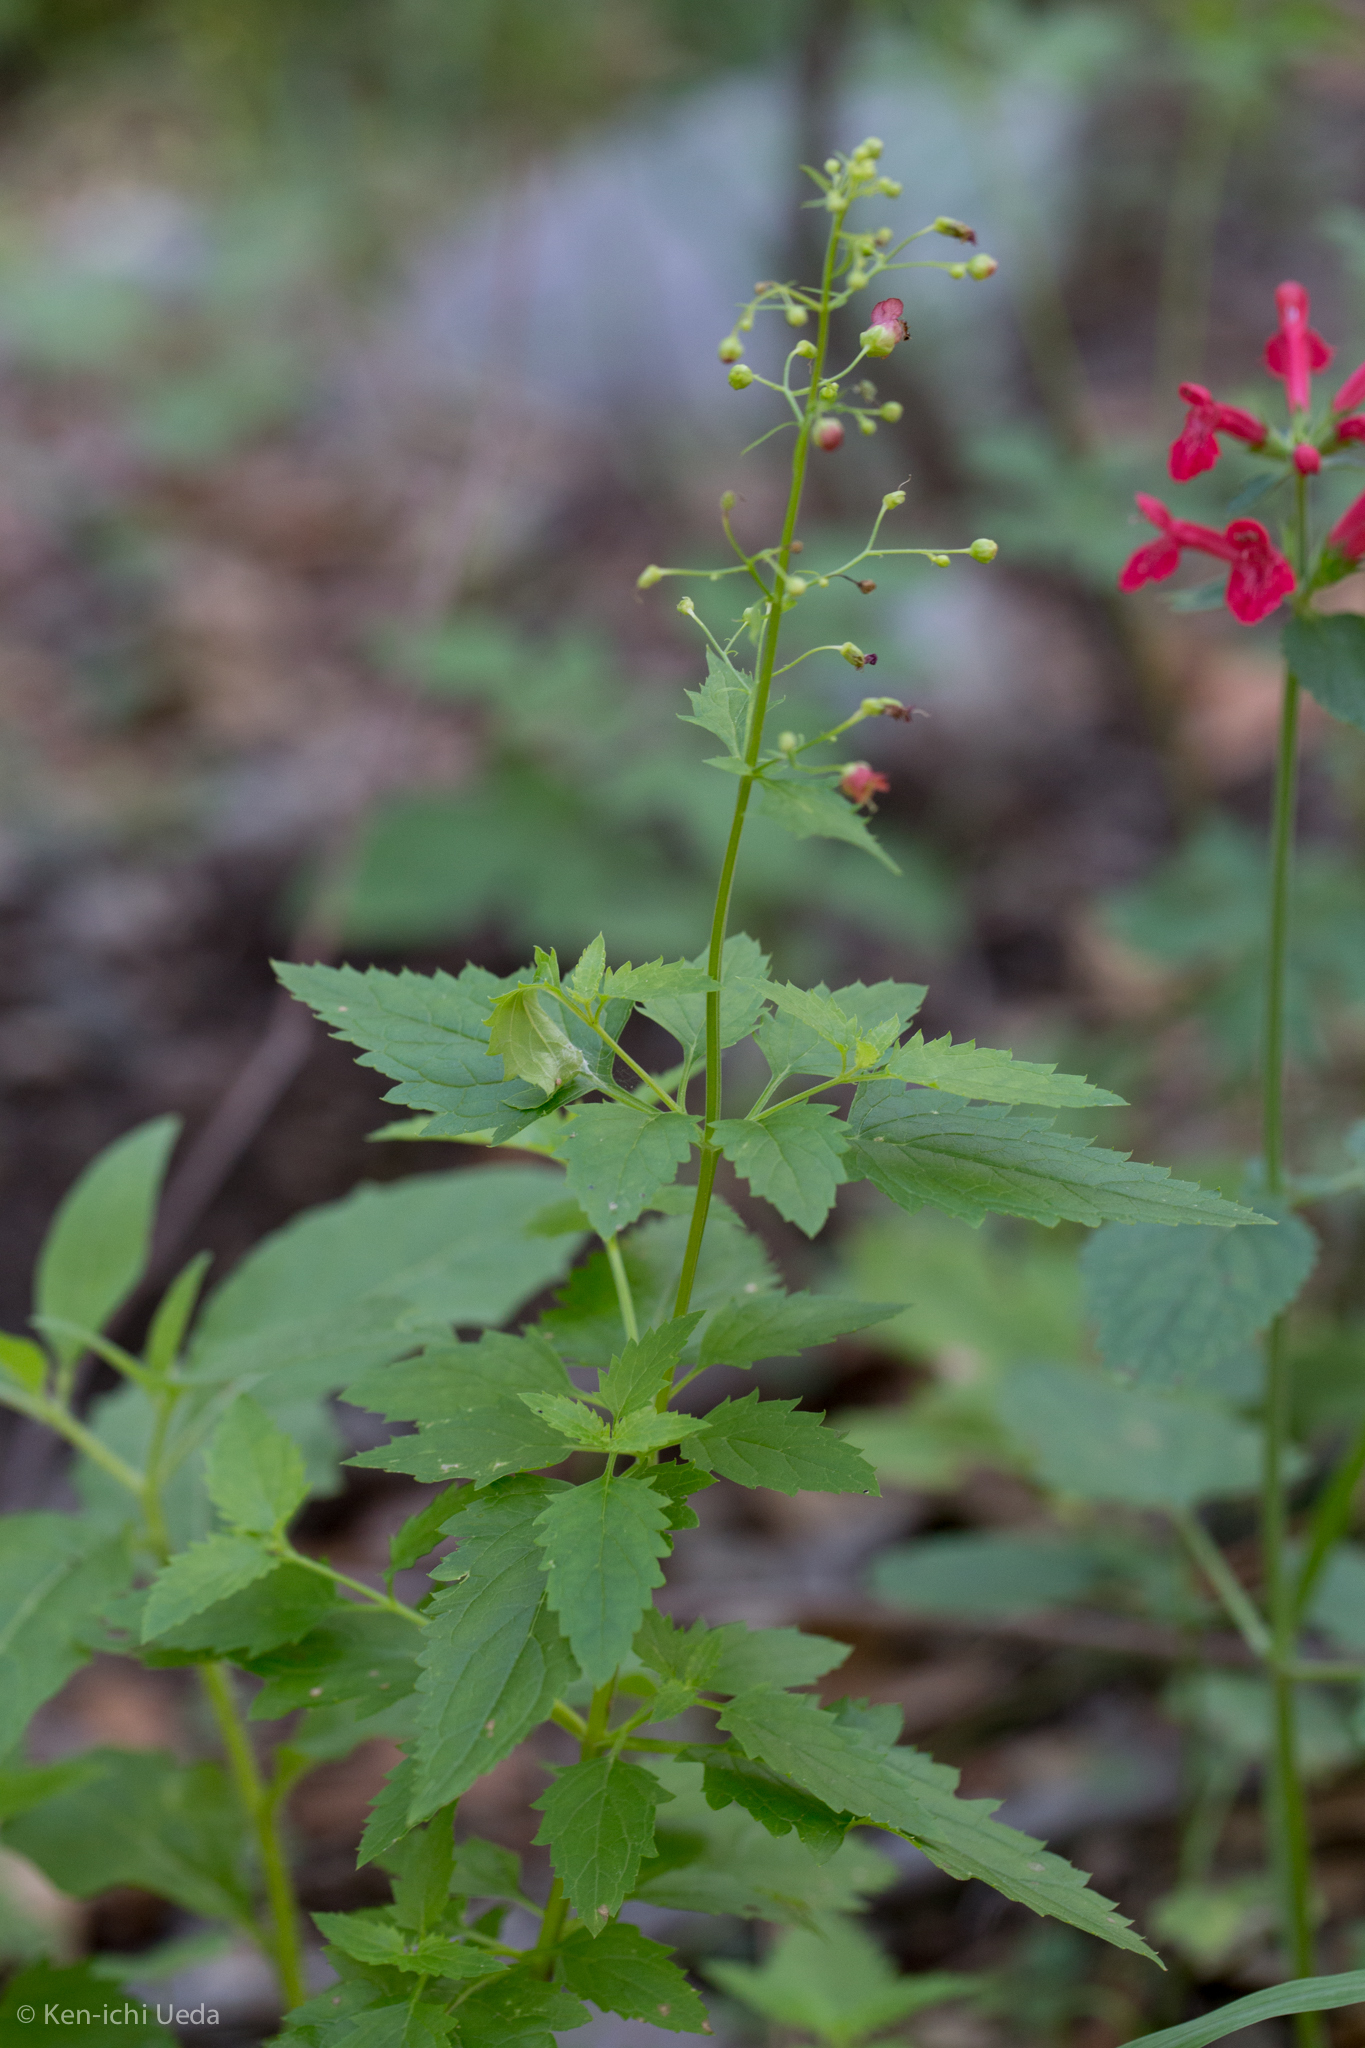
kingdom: Plantae
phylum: Tracheophyta
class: Magnoliopsida
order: Lamiales
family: Scrophulariaceae
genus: Scrophularia
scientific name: Scrophularia parviflora
